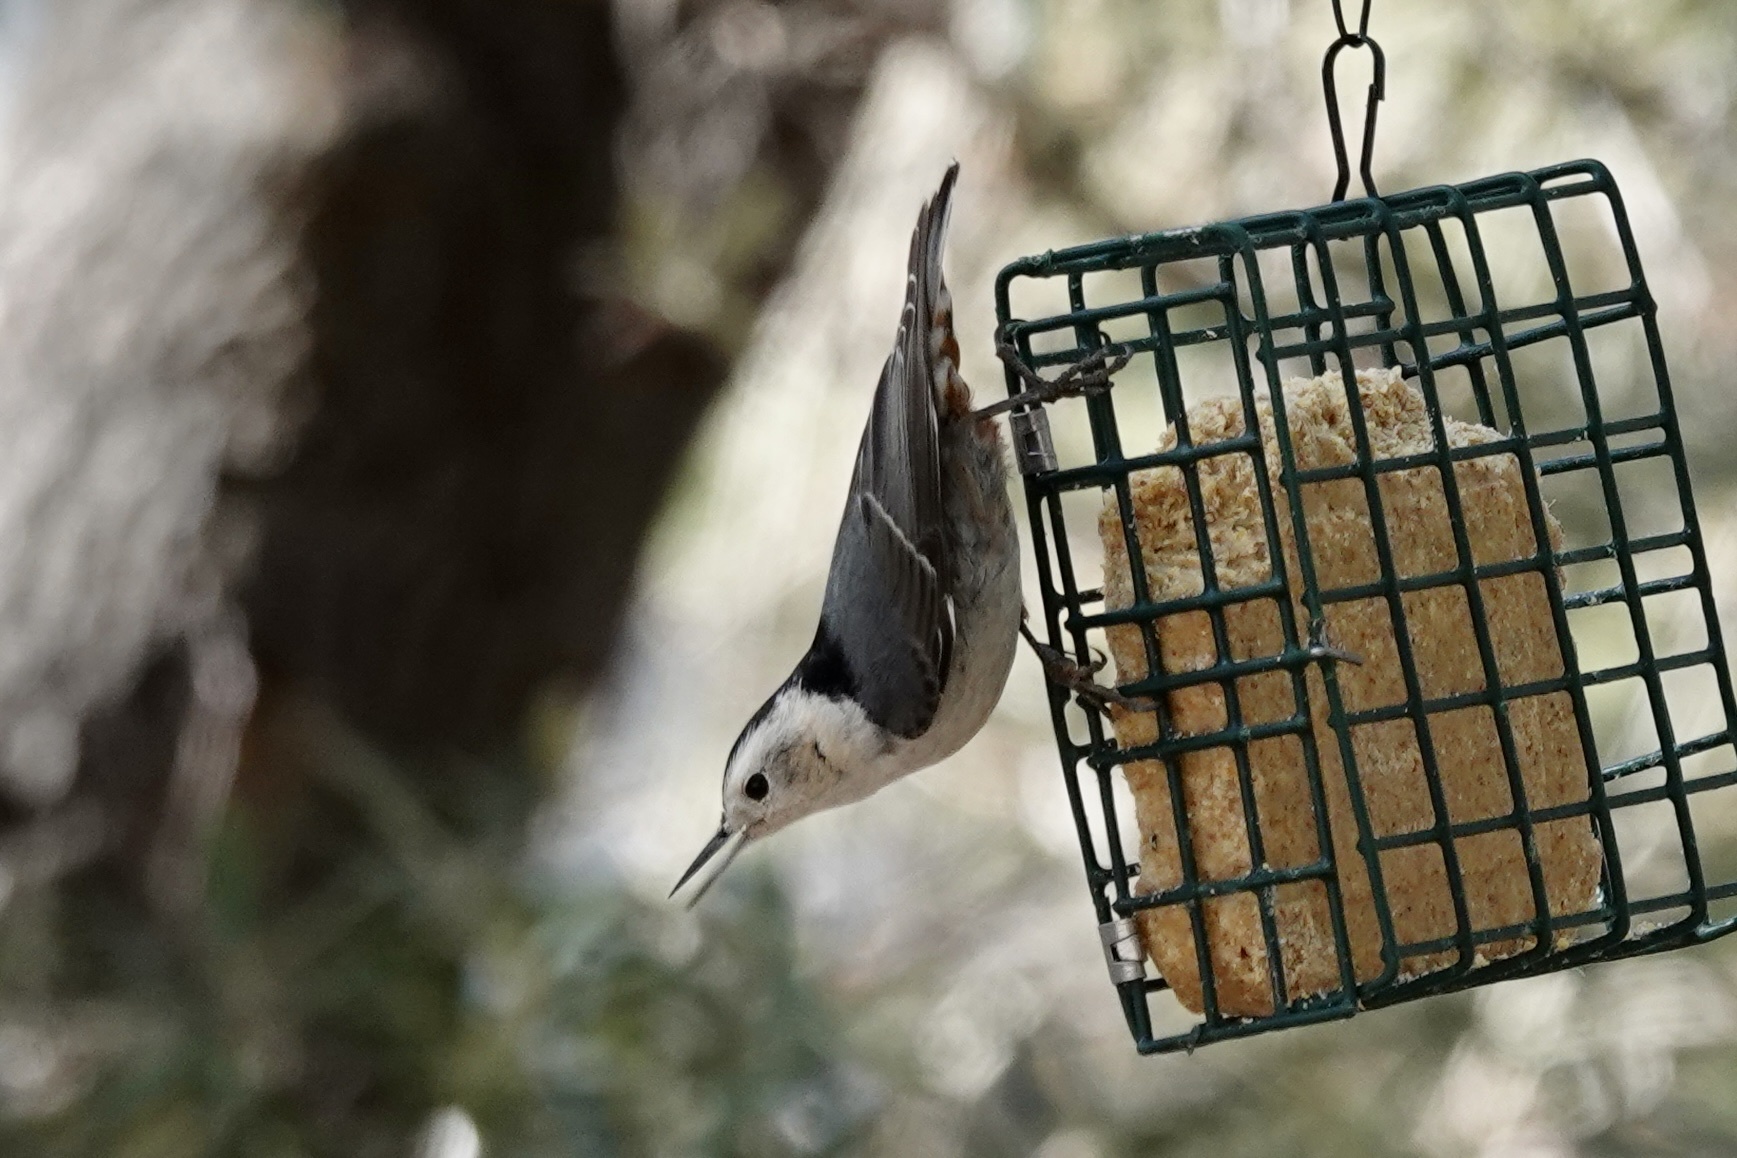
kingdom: Animalia
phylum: Chordata
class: Aves
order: Passeriformes
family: Sittidae
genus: Sitta
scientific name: Sitta carolinensis
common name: White-breasted nuthatch
